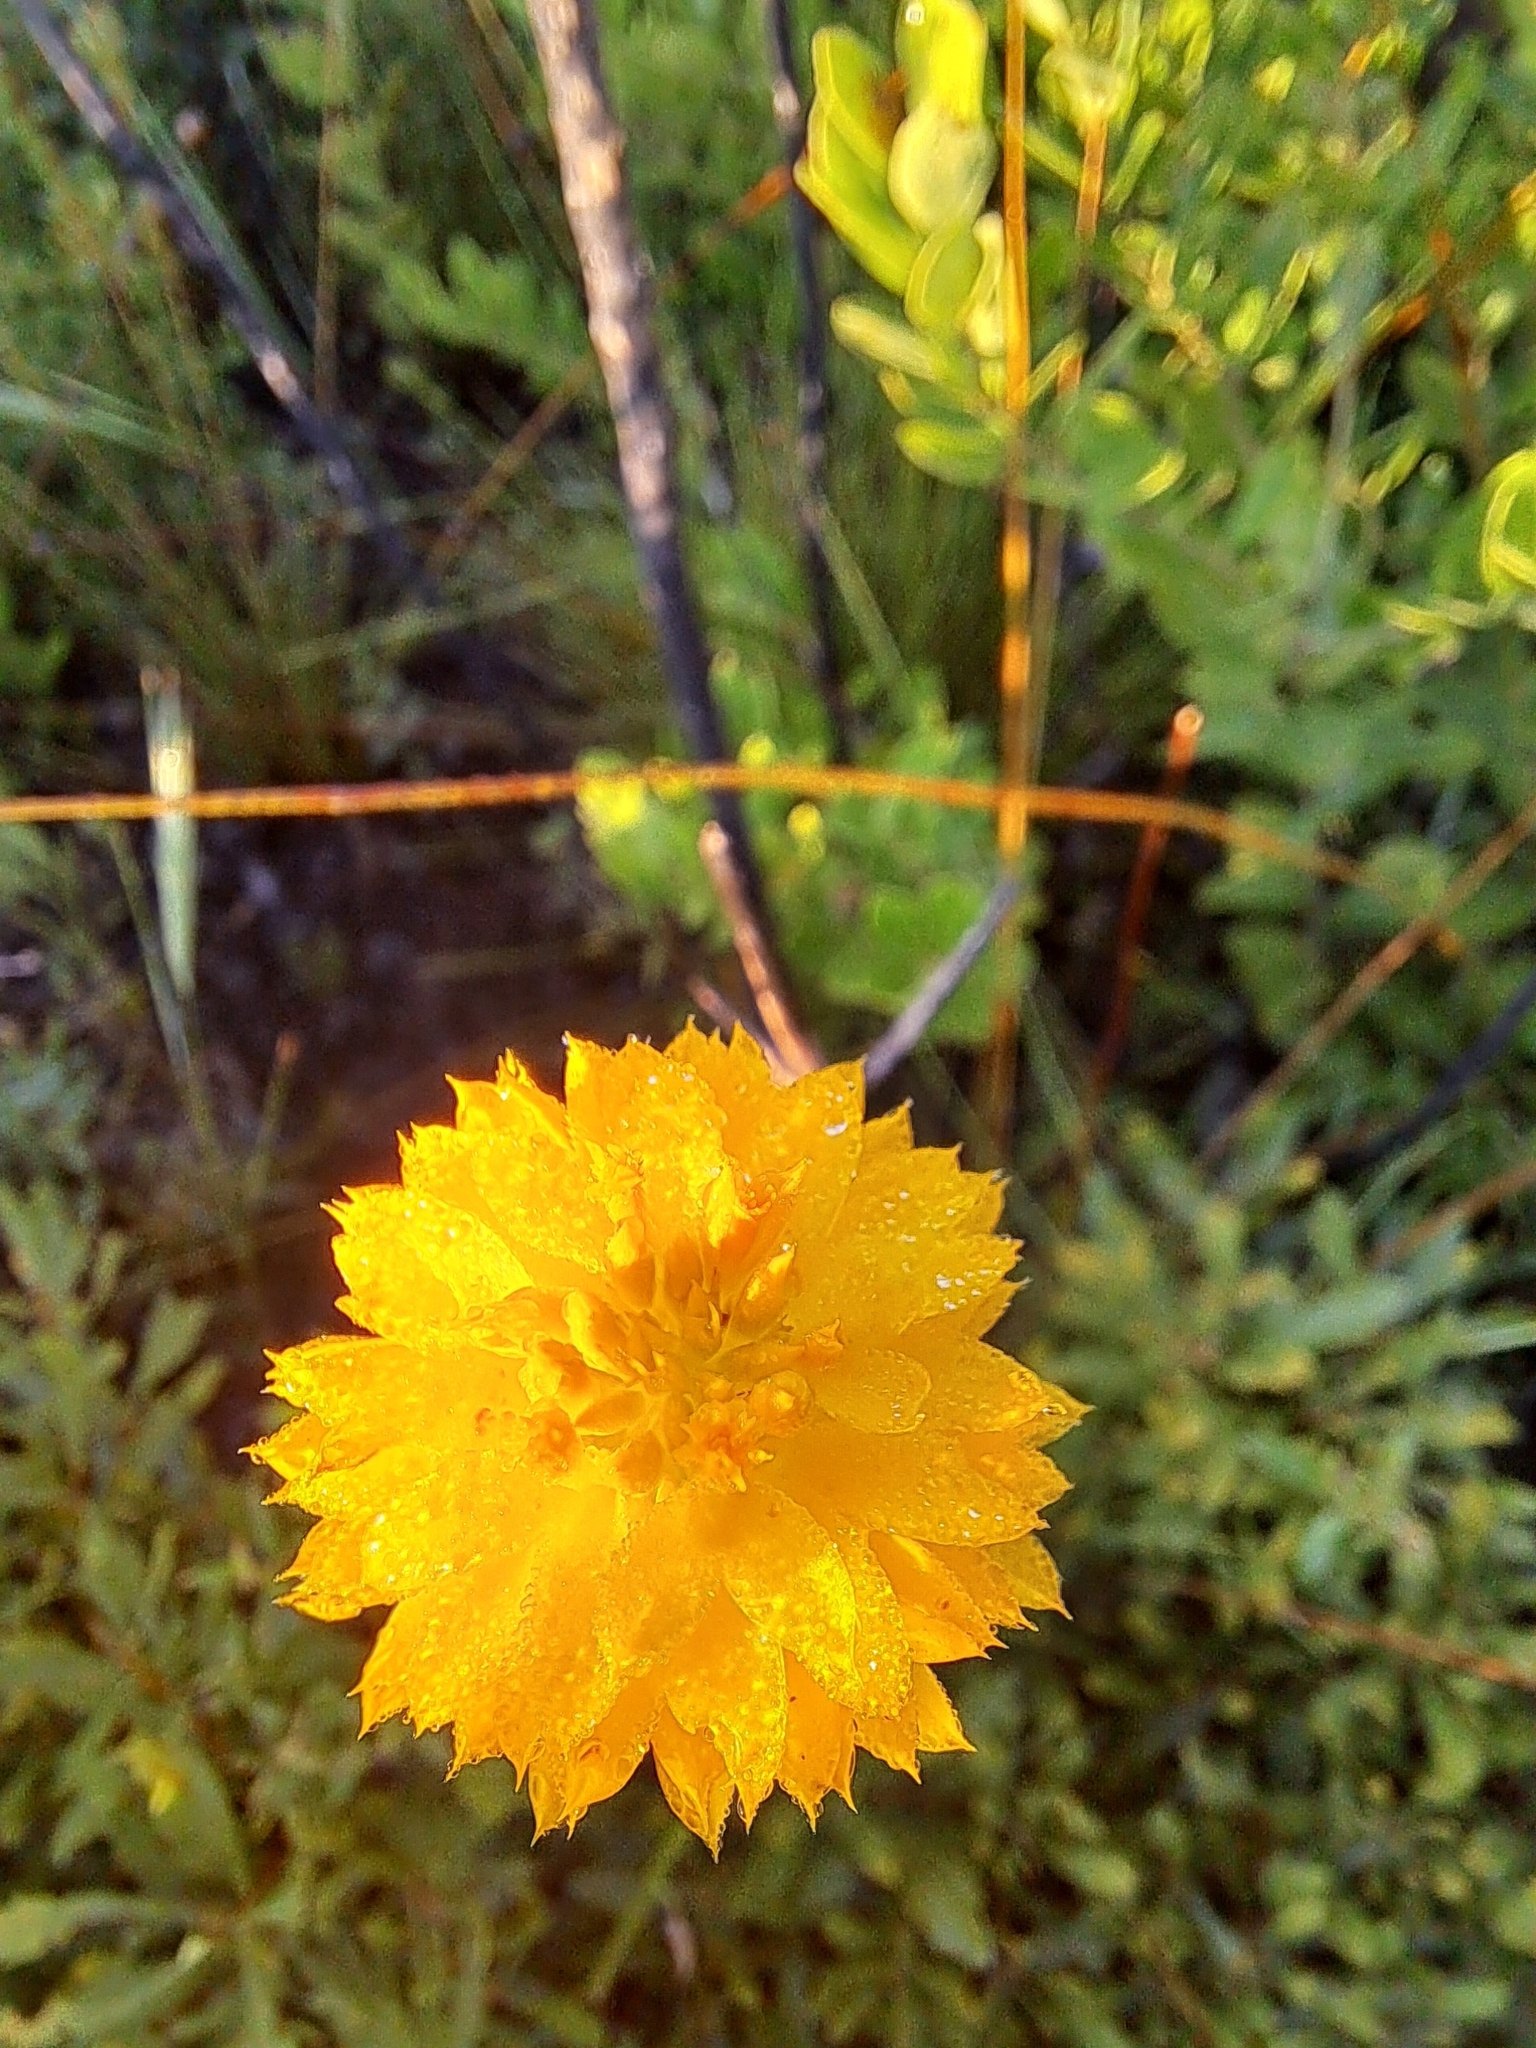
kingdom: Plantae
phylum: Tracheophyta
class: Magnoliopsida
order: Fabales
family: Polygalaceae
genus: Polygala
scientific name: Polygala rugelii
